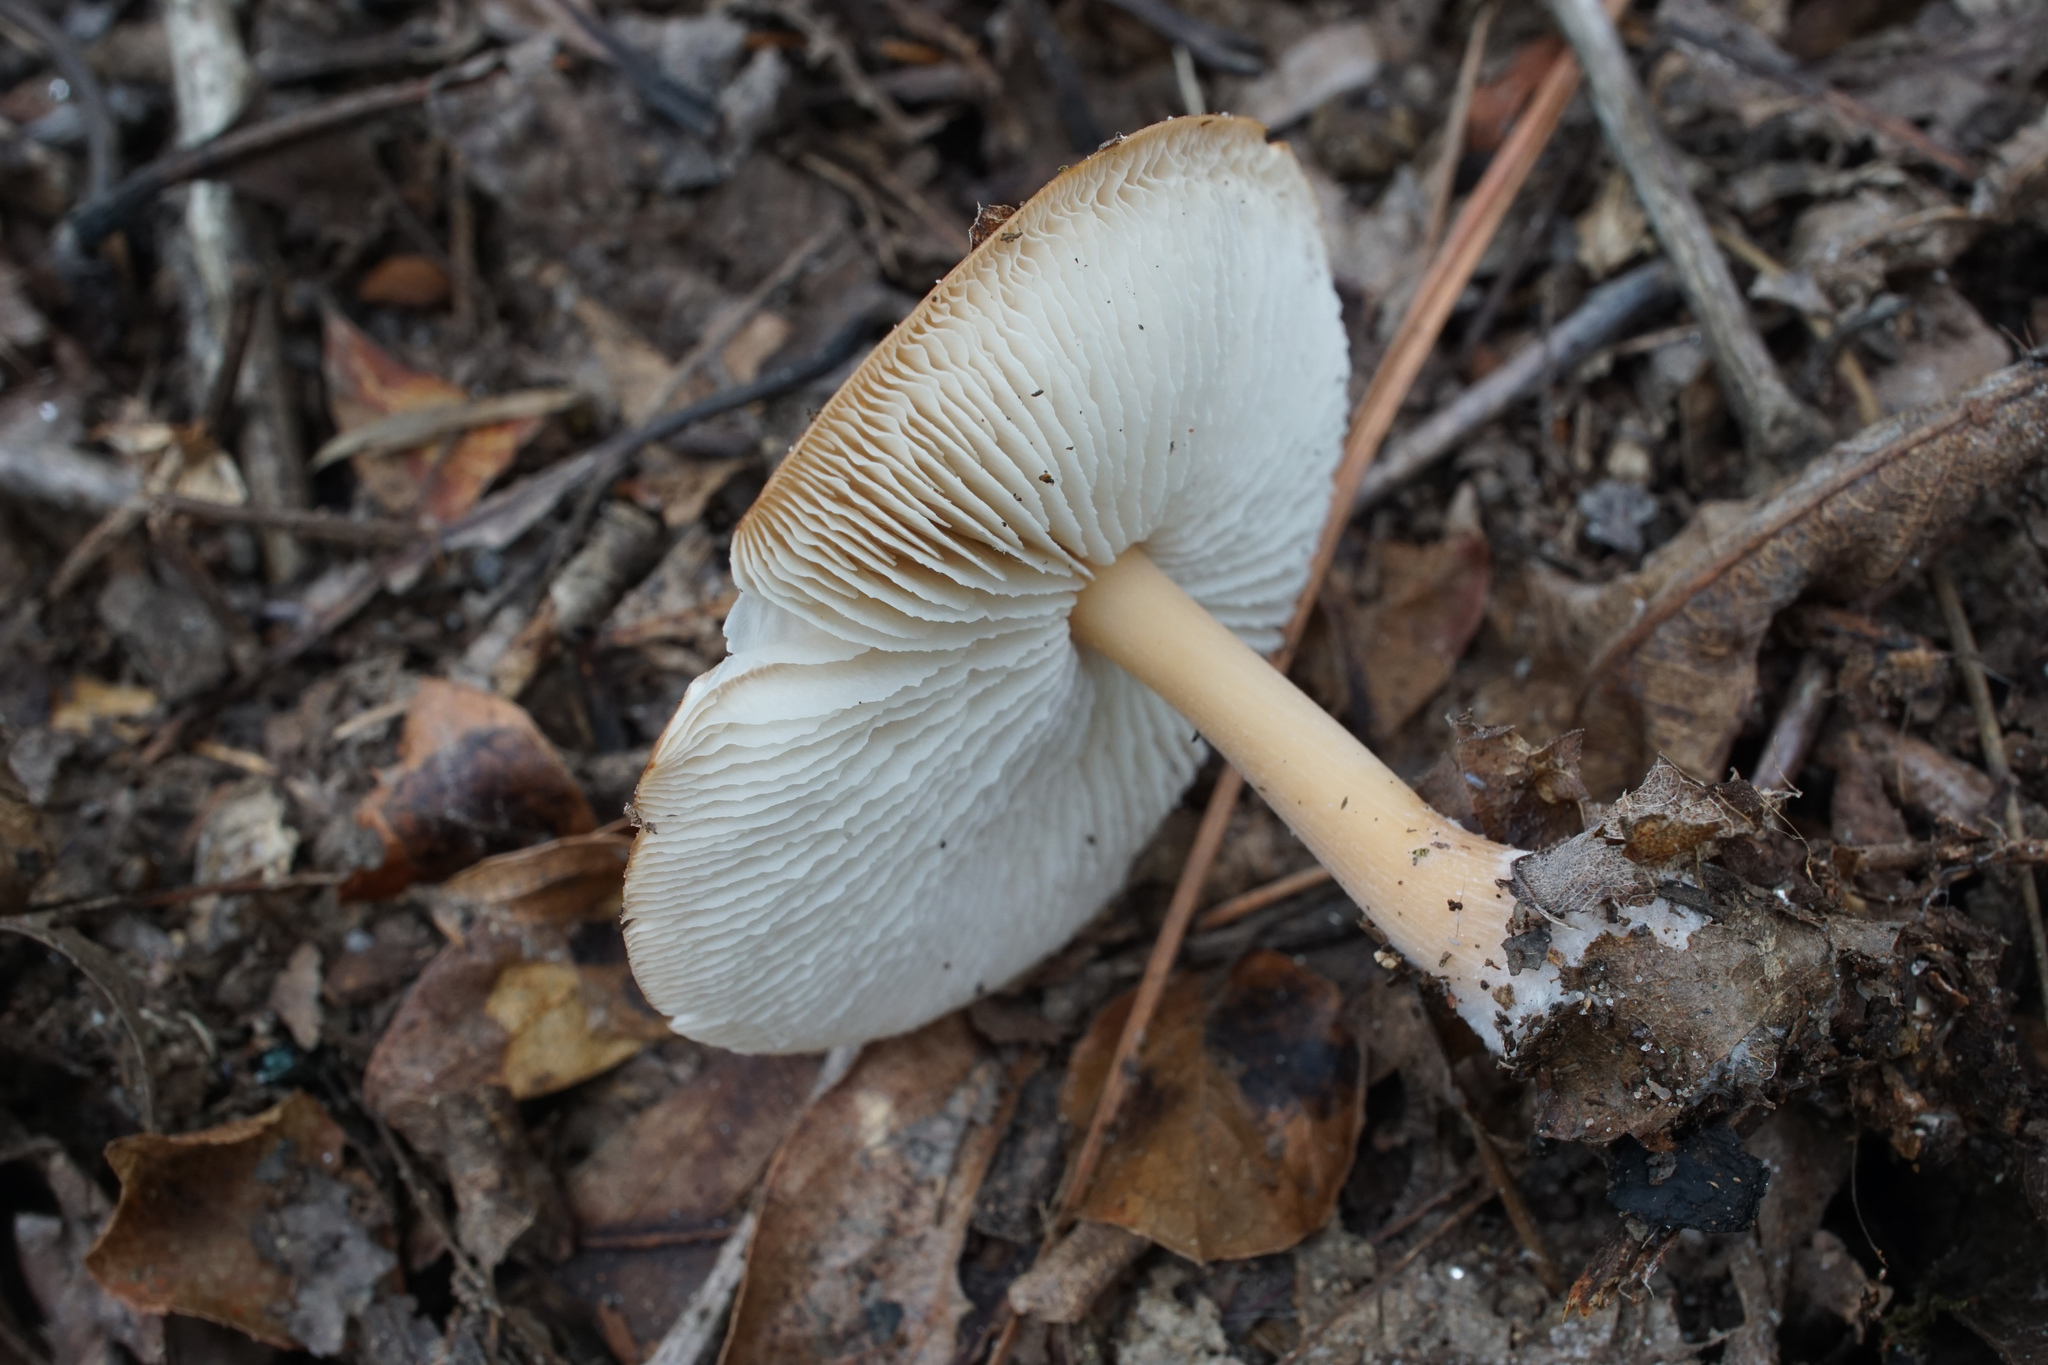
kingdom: Fungi
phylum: Basidiomycota
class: Agaricomycetes
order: Agaricales
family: Omphalotaceae
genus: Rhodocollybia
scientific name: Rhodocollybia butyracea
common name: Butter cap
